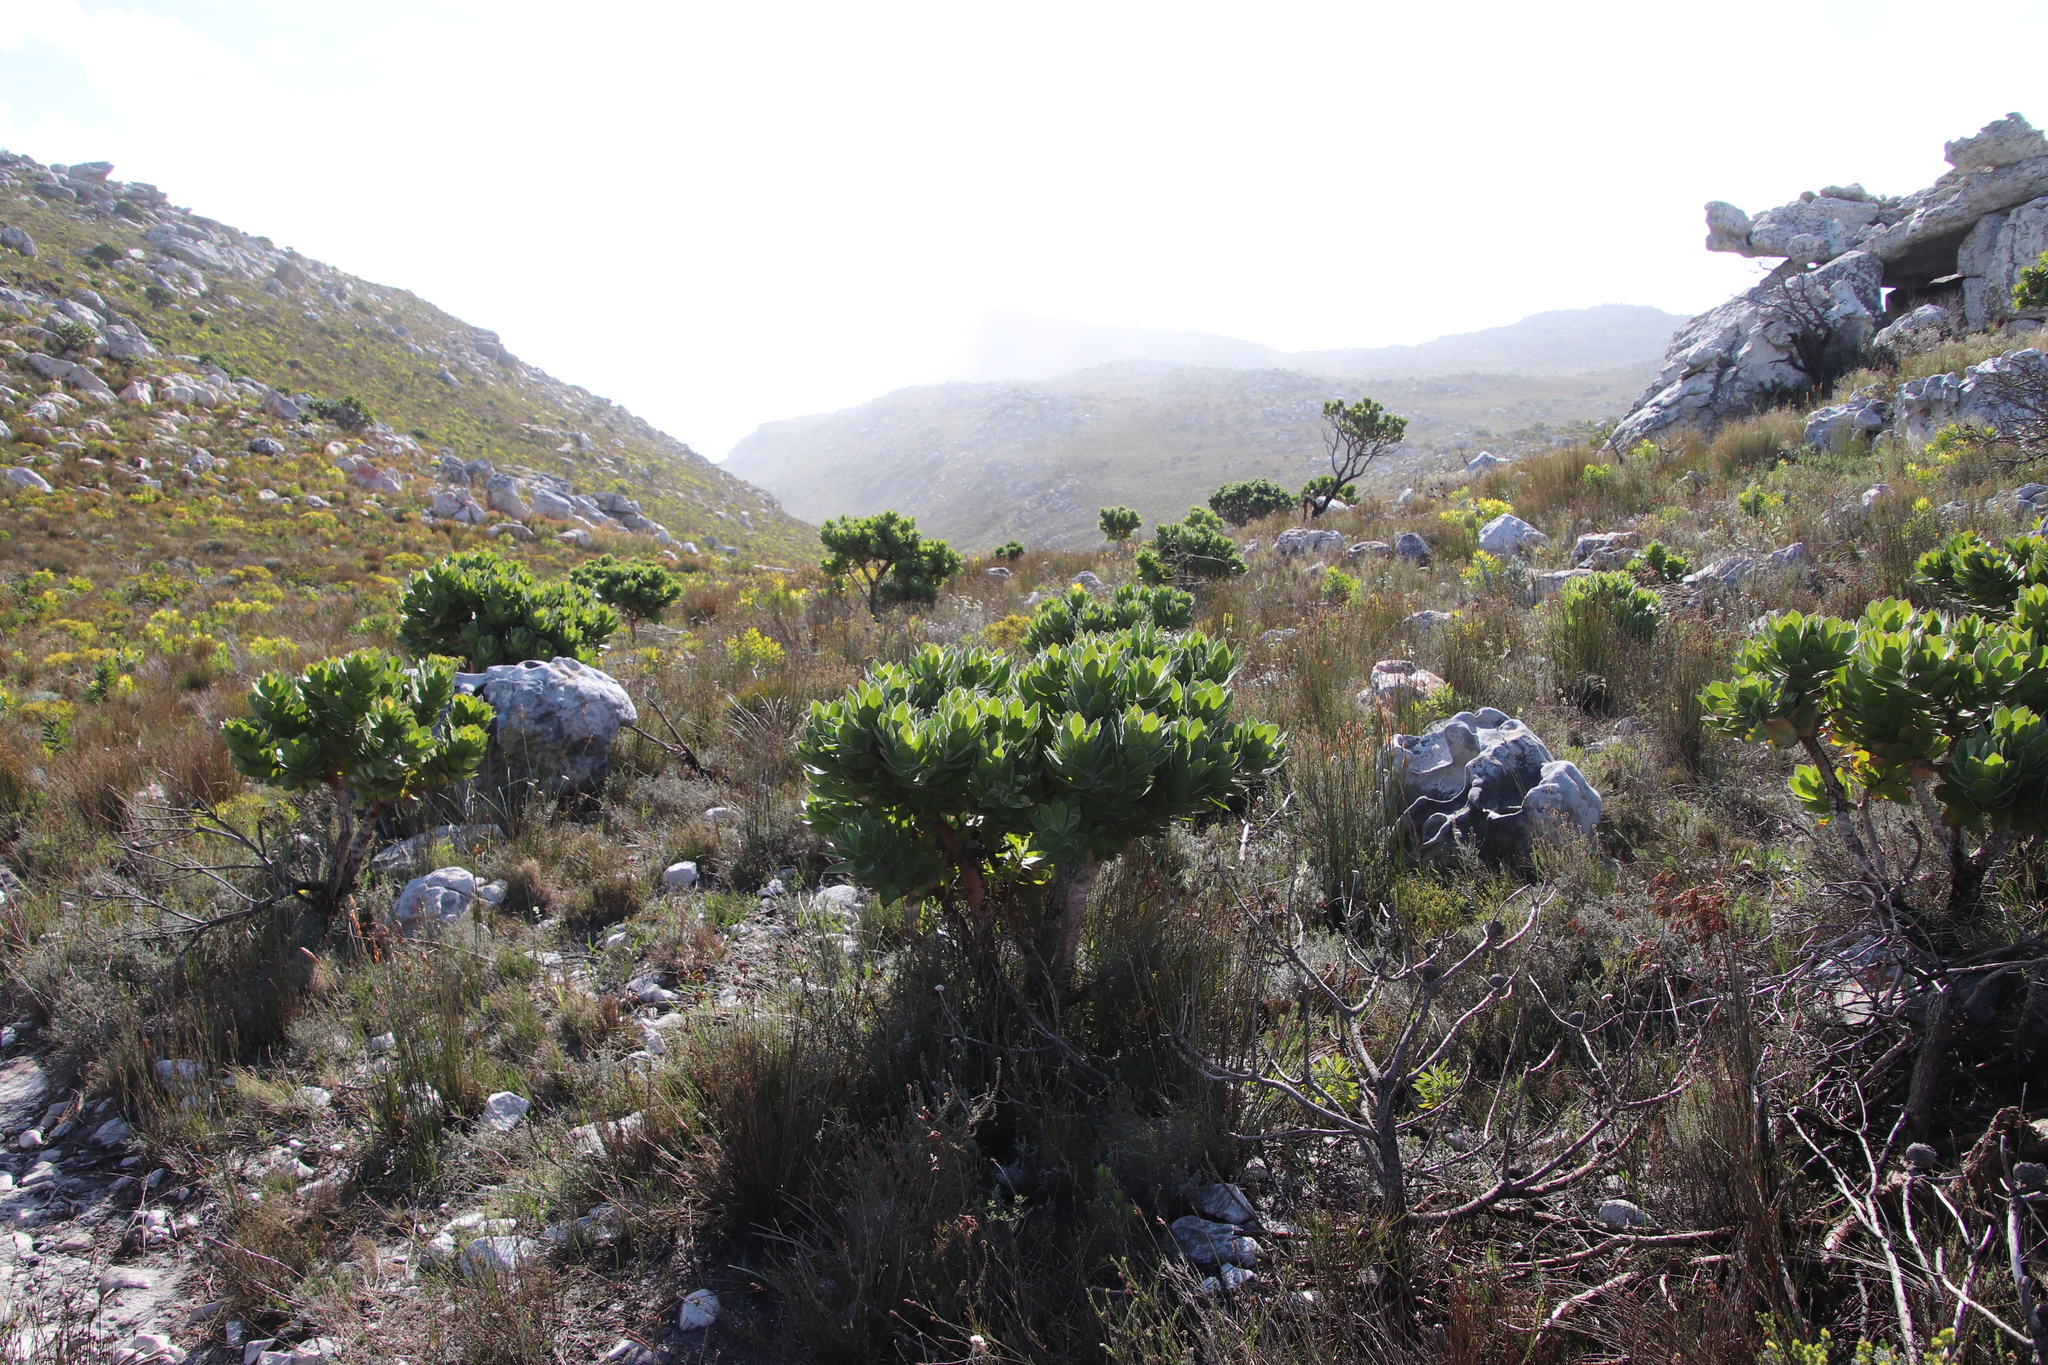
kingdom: Plantae
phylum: Tracheophyta
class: Magnoliopsida
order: Proteales
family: Proteaceae
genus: Leucospermum
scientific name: Leucospermum conocarpodendron
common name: Tree pincushion
